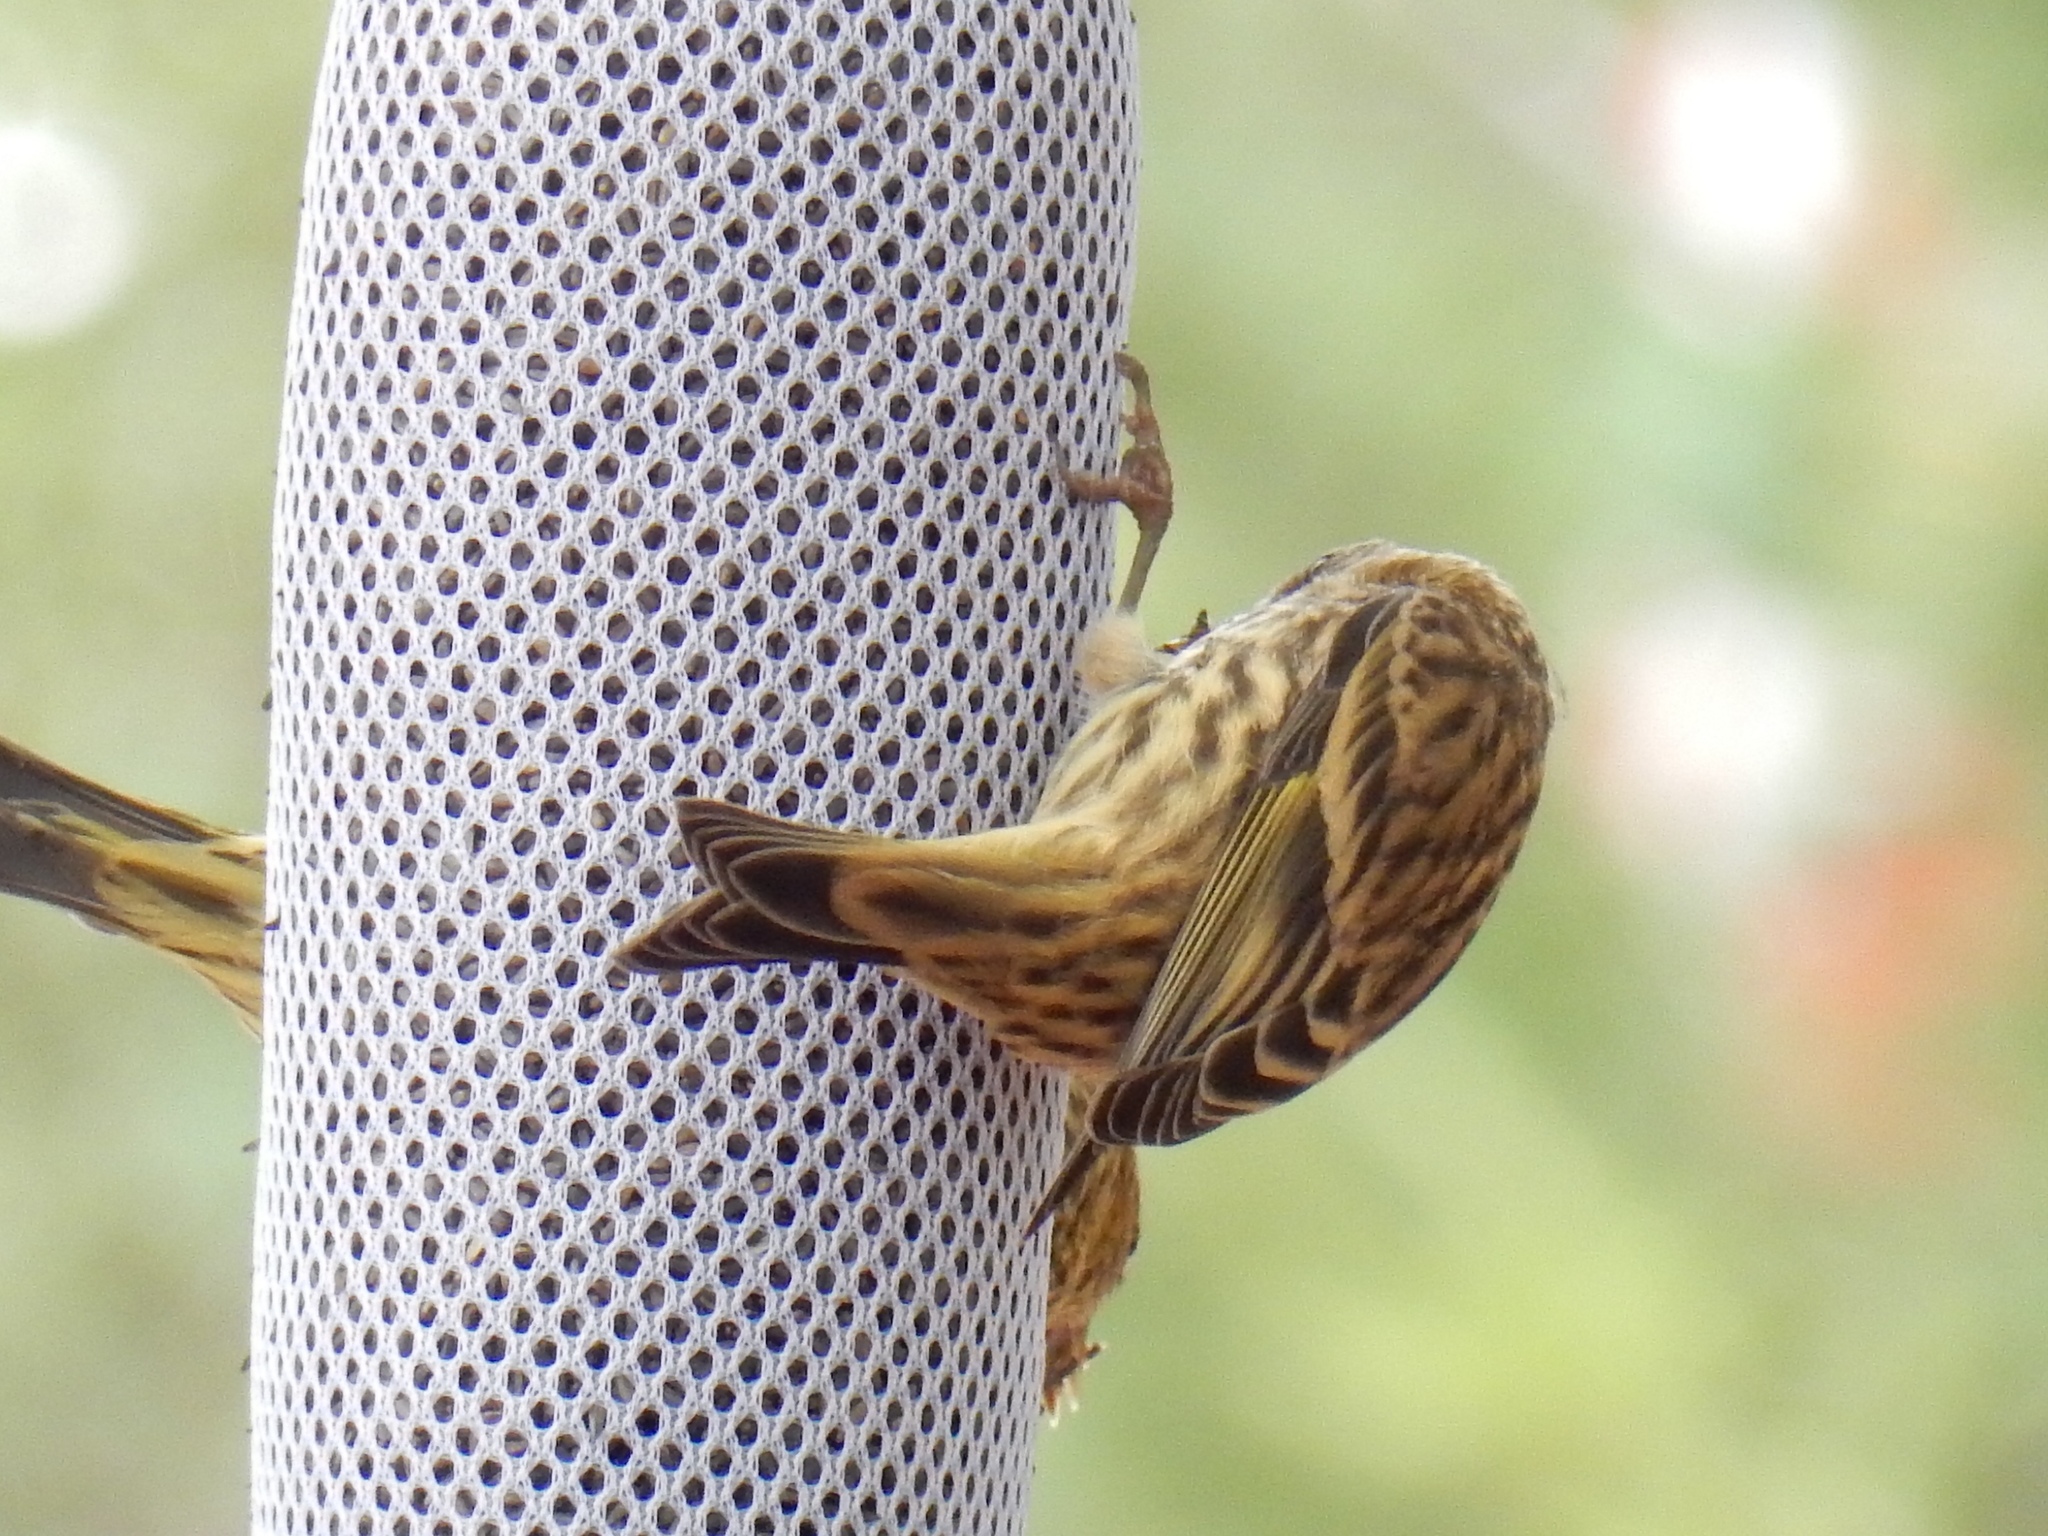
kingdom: Animalia
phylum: Chordata
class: Aves
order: Passeriformes
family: Fringillidae
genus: Spinus
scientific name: Spinus pinus
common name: Pine siskin
